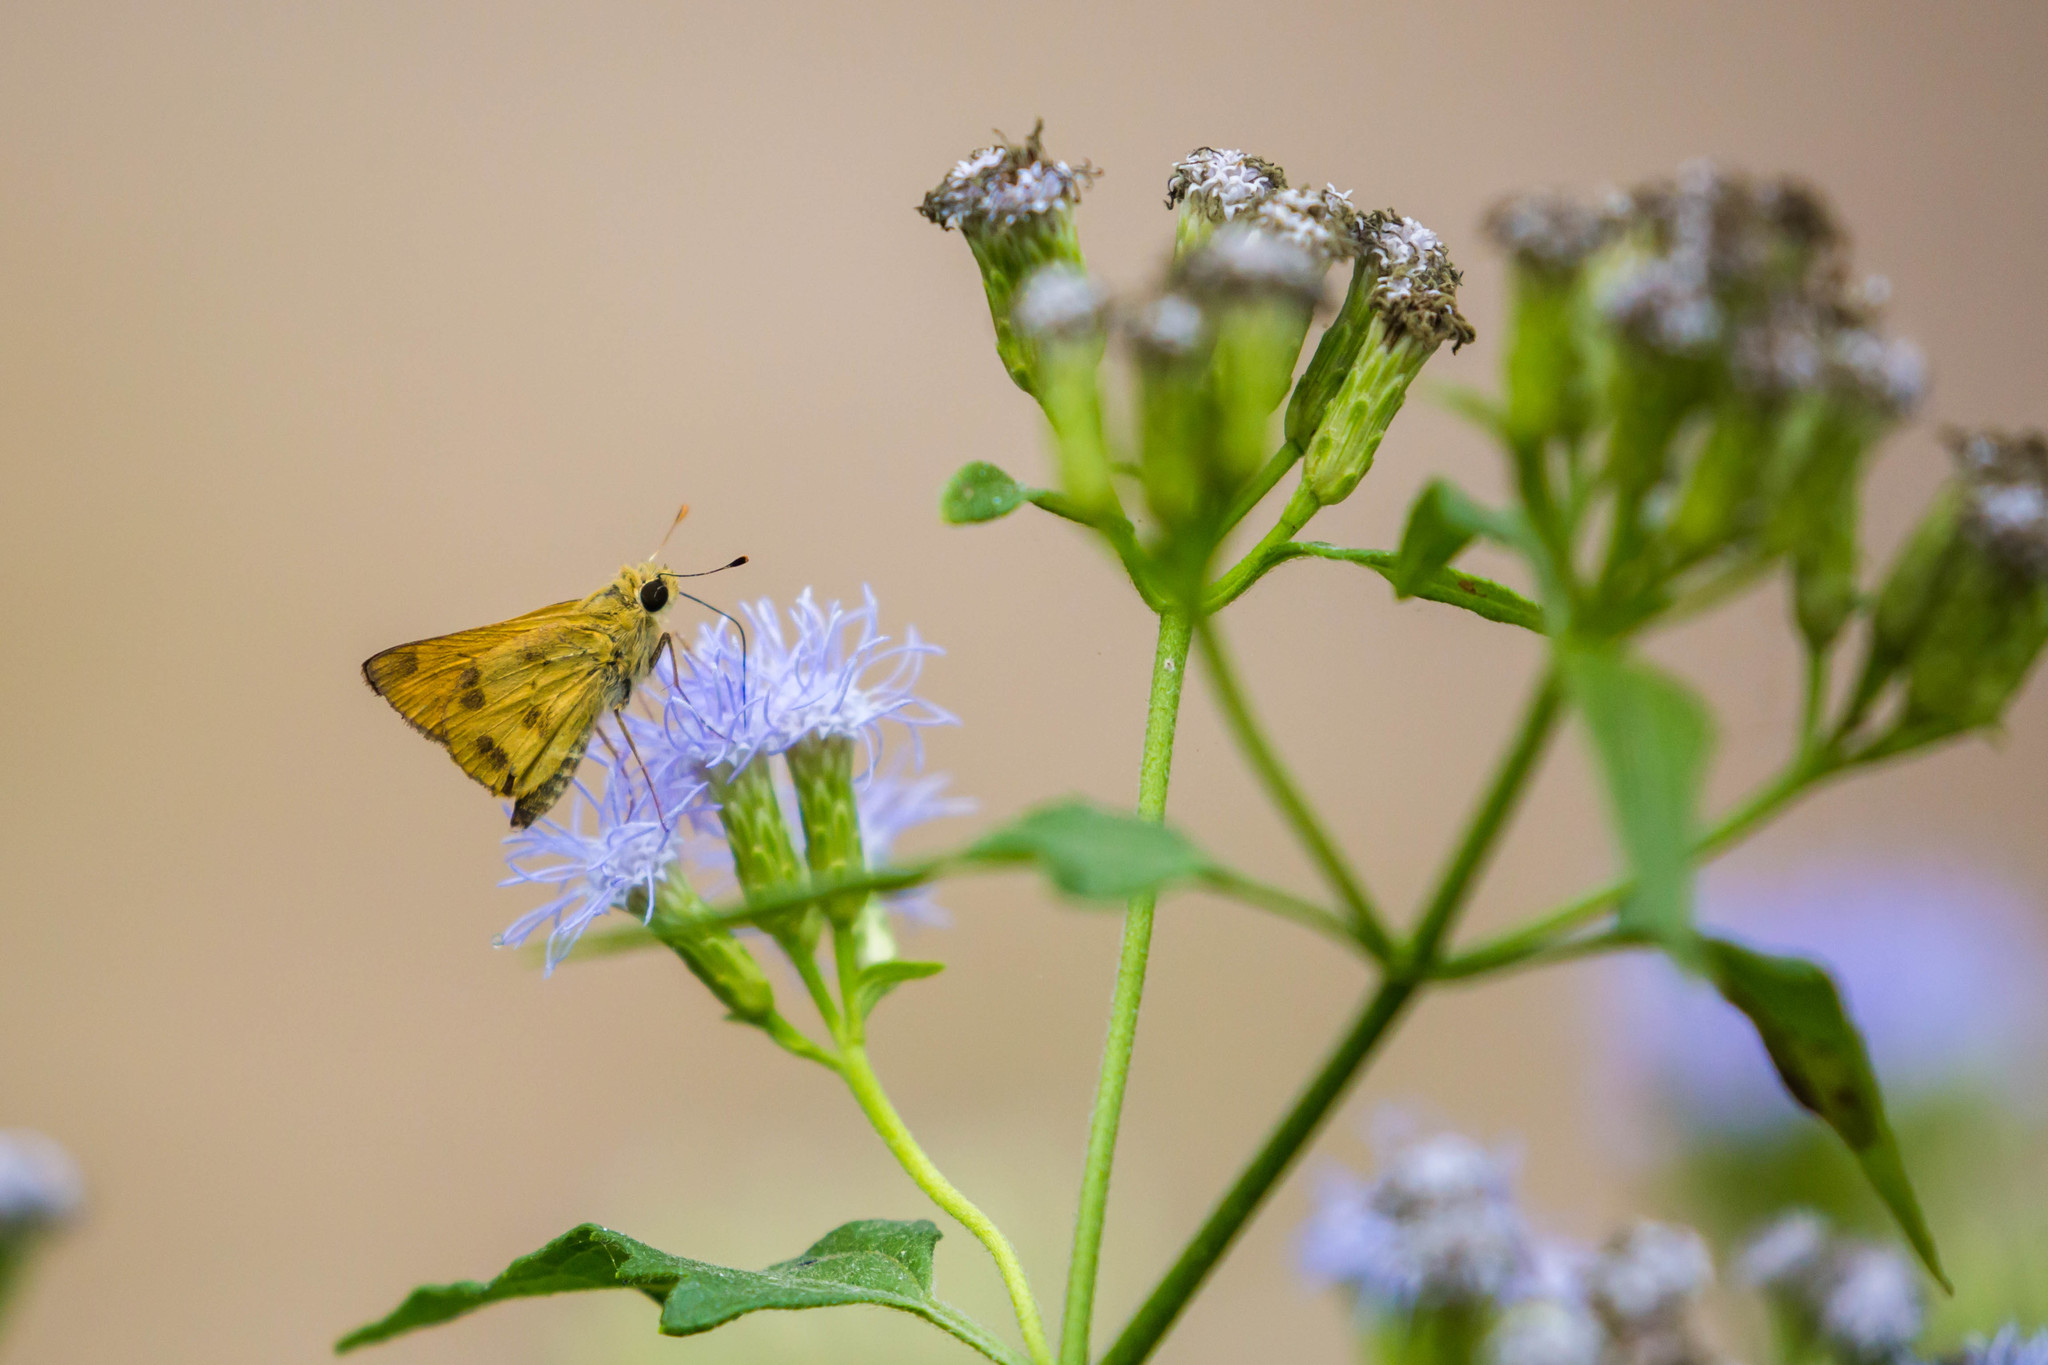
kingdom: Animalia
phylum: Arthropoda
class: Insecta
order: Lepidoptera
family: Hesperiidae
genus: Polites
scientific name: Polites vibex
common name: Whirlabout
